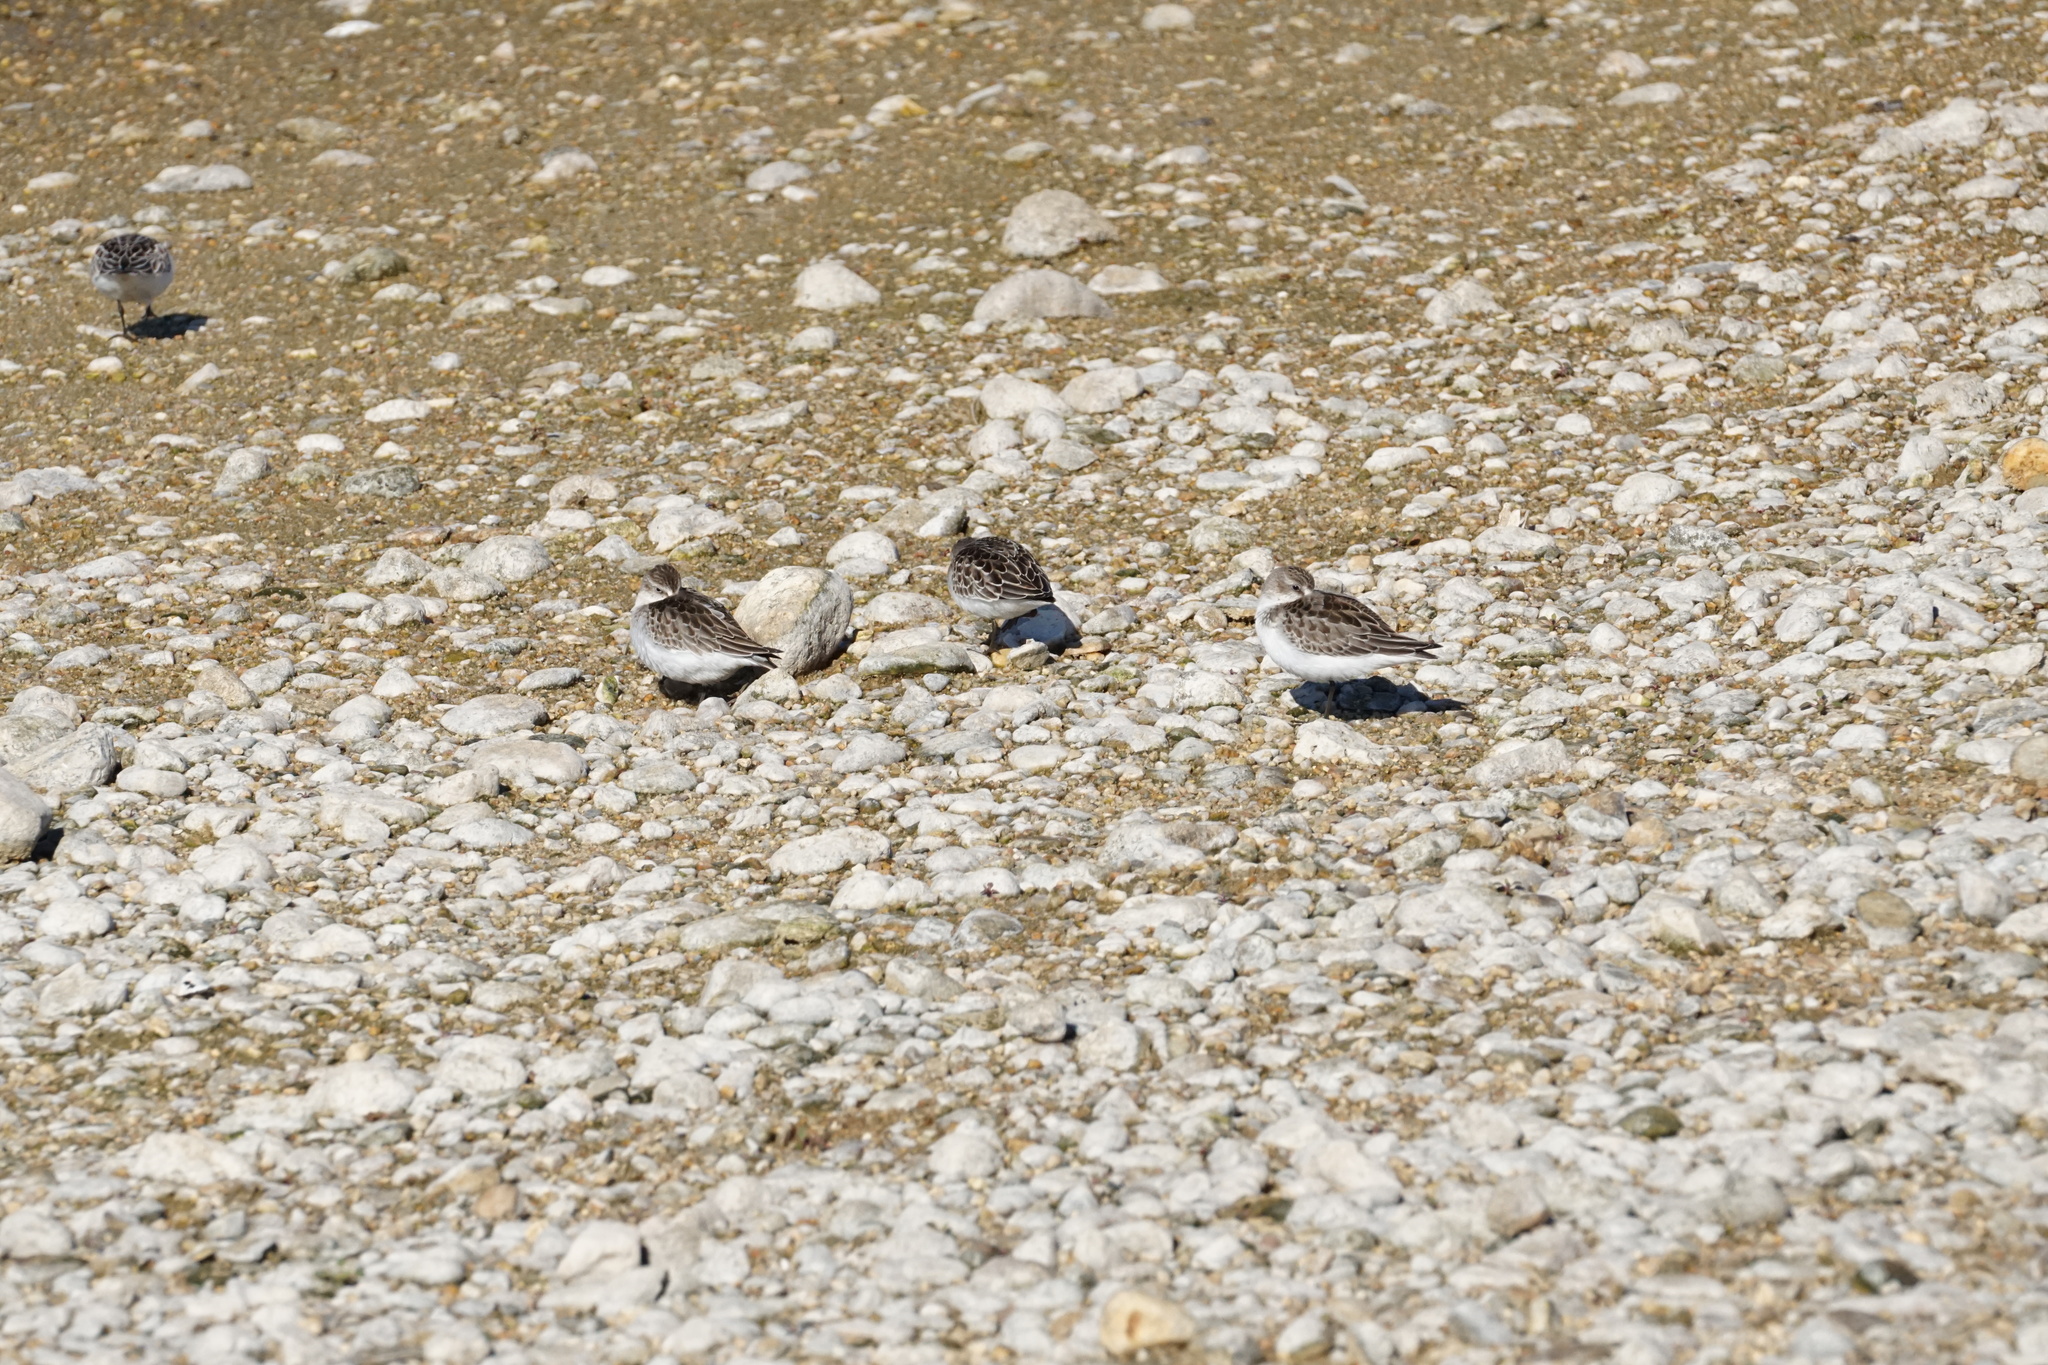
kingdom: Animalia
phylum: Chordata
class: Aves
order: Charadriiformes
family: Scolopacidae
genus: Calidris
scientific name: Calidris pusilla
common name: Semipalmated sandpiper
